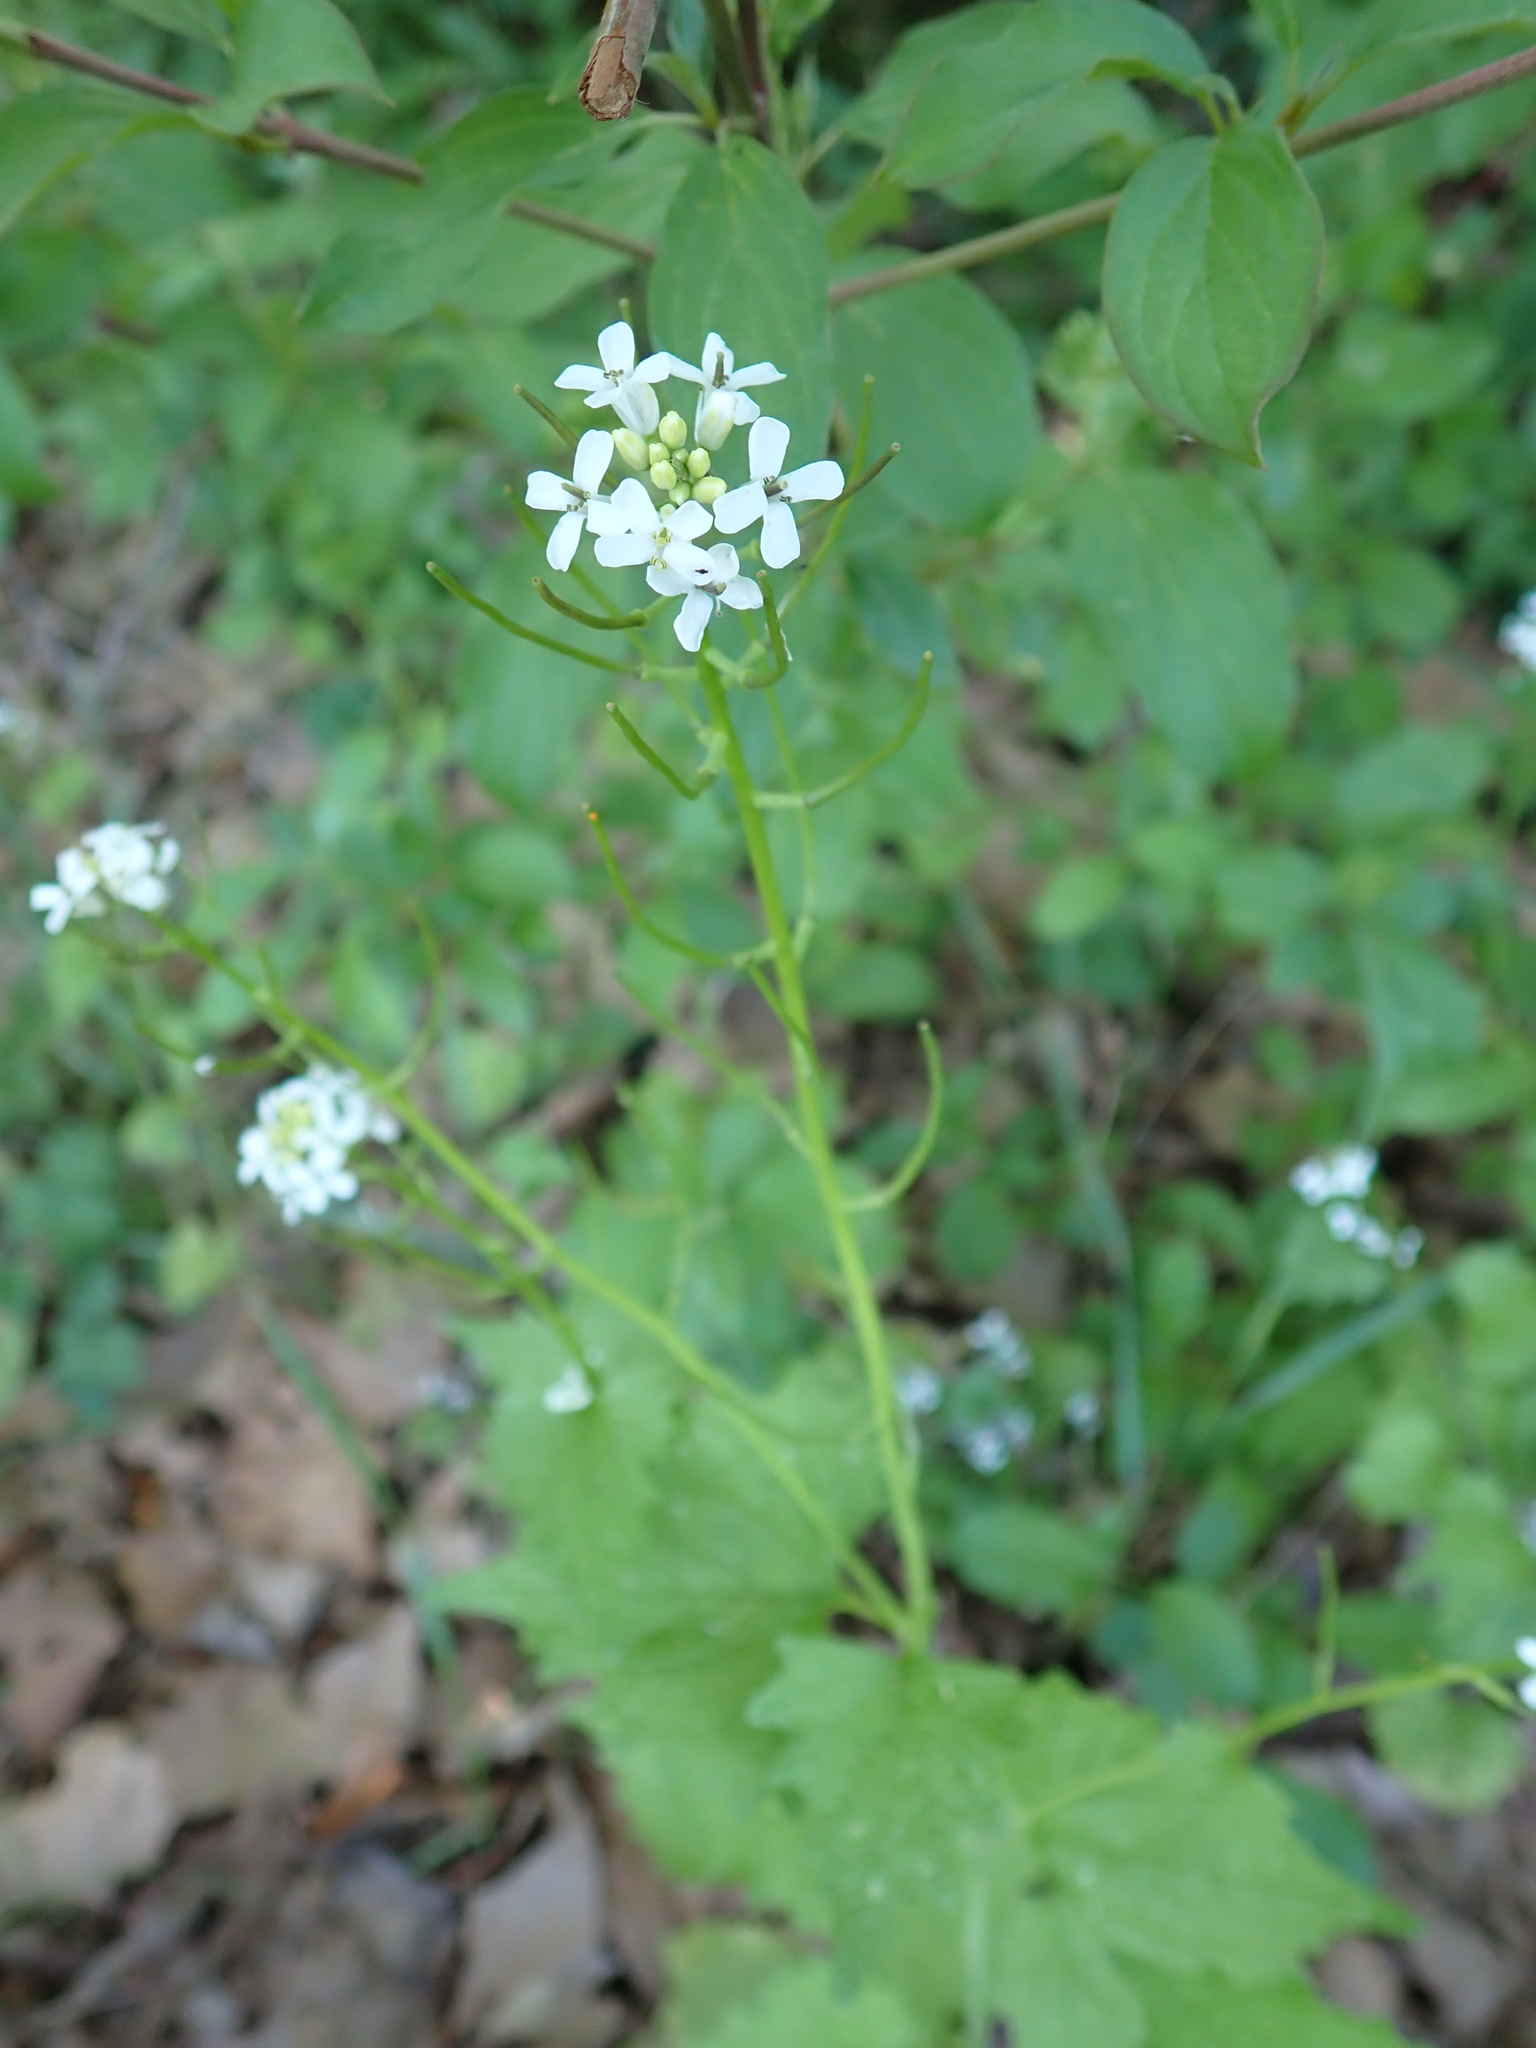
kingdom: Plantae
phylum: Tracheophyta
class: Magnoliopsida
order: Brassicales
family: Brassicaceae
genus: Alliaria
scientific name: Alliaria petiolata
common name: Garlic mustard
